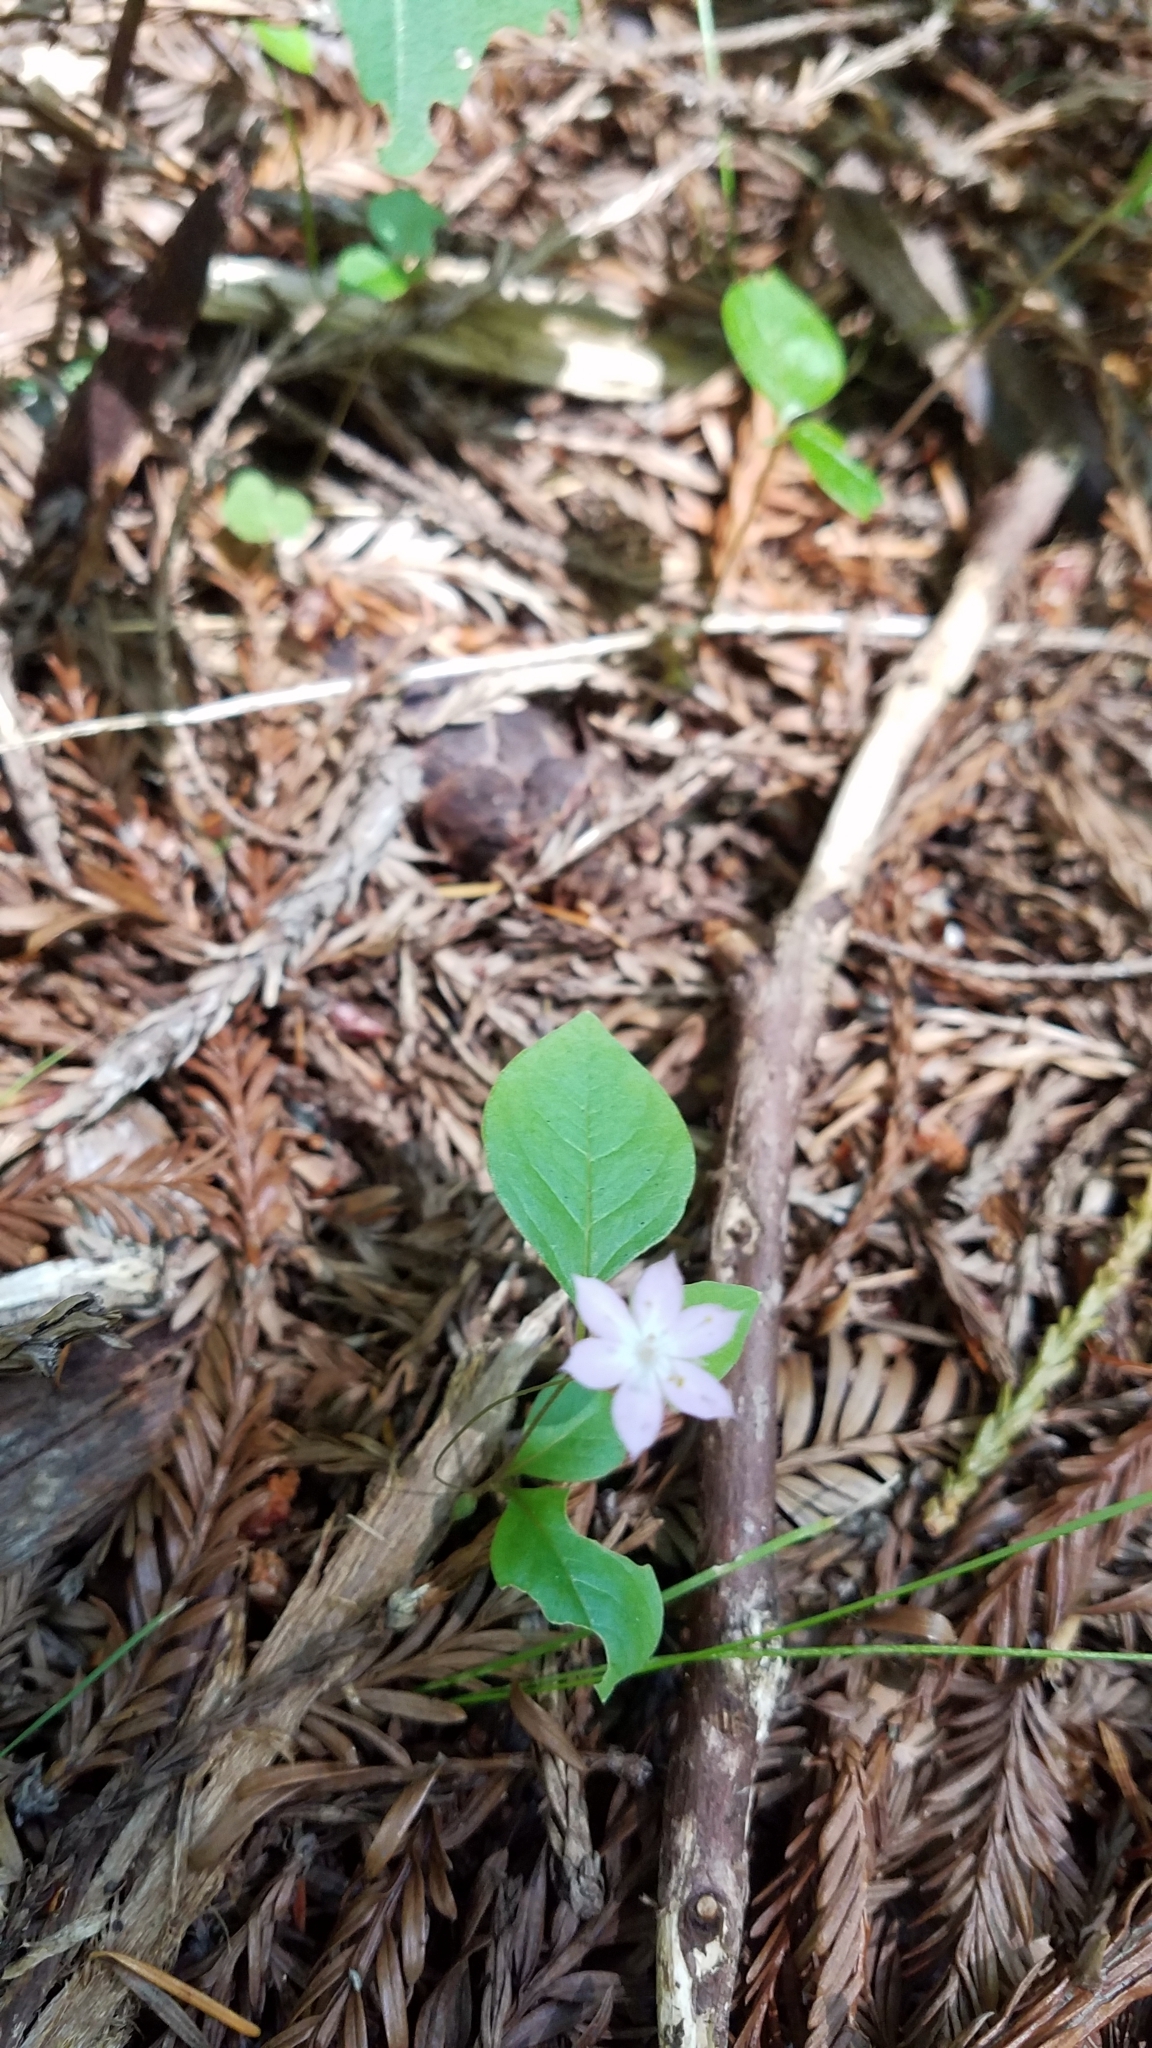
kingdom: Plantae
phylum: Tracheophyta
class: Magnoliopsida
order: Ericales
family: Primulaceae
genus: Lysimachia
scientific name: Lysimachia latifolia
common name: Pacific starflower
